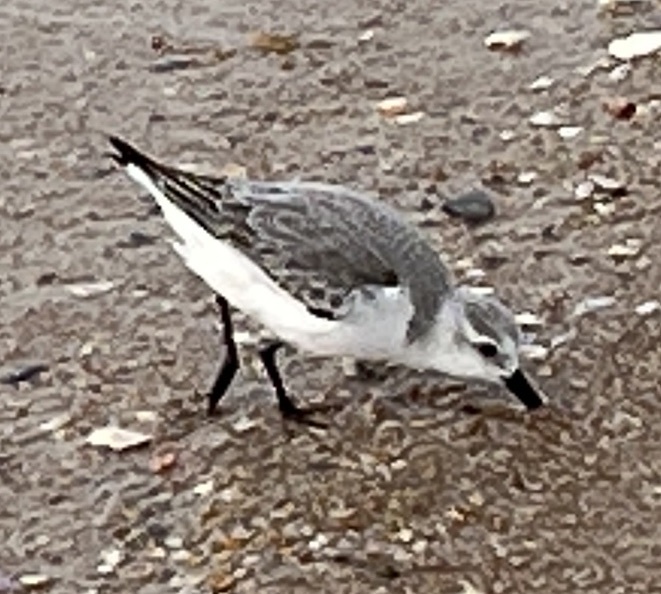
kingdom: Animalia
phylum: Chordata
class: Aves
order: Charadriiformes
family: Scolopacidae
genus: Calidris
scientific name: Calidris alba
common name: Sanderling
